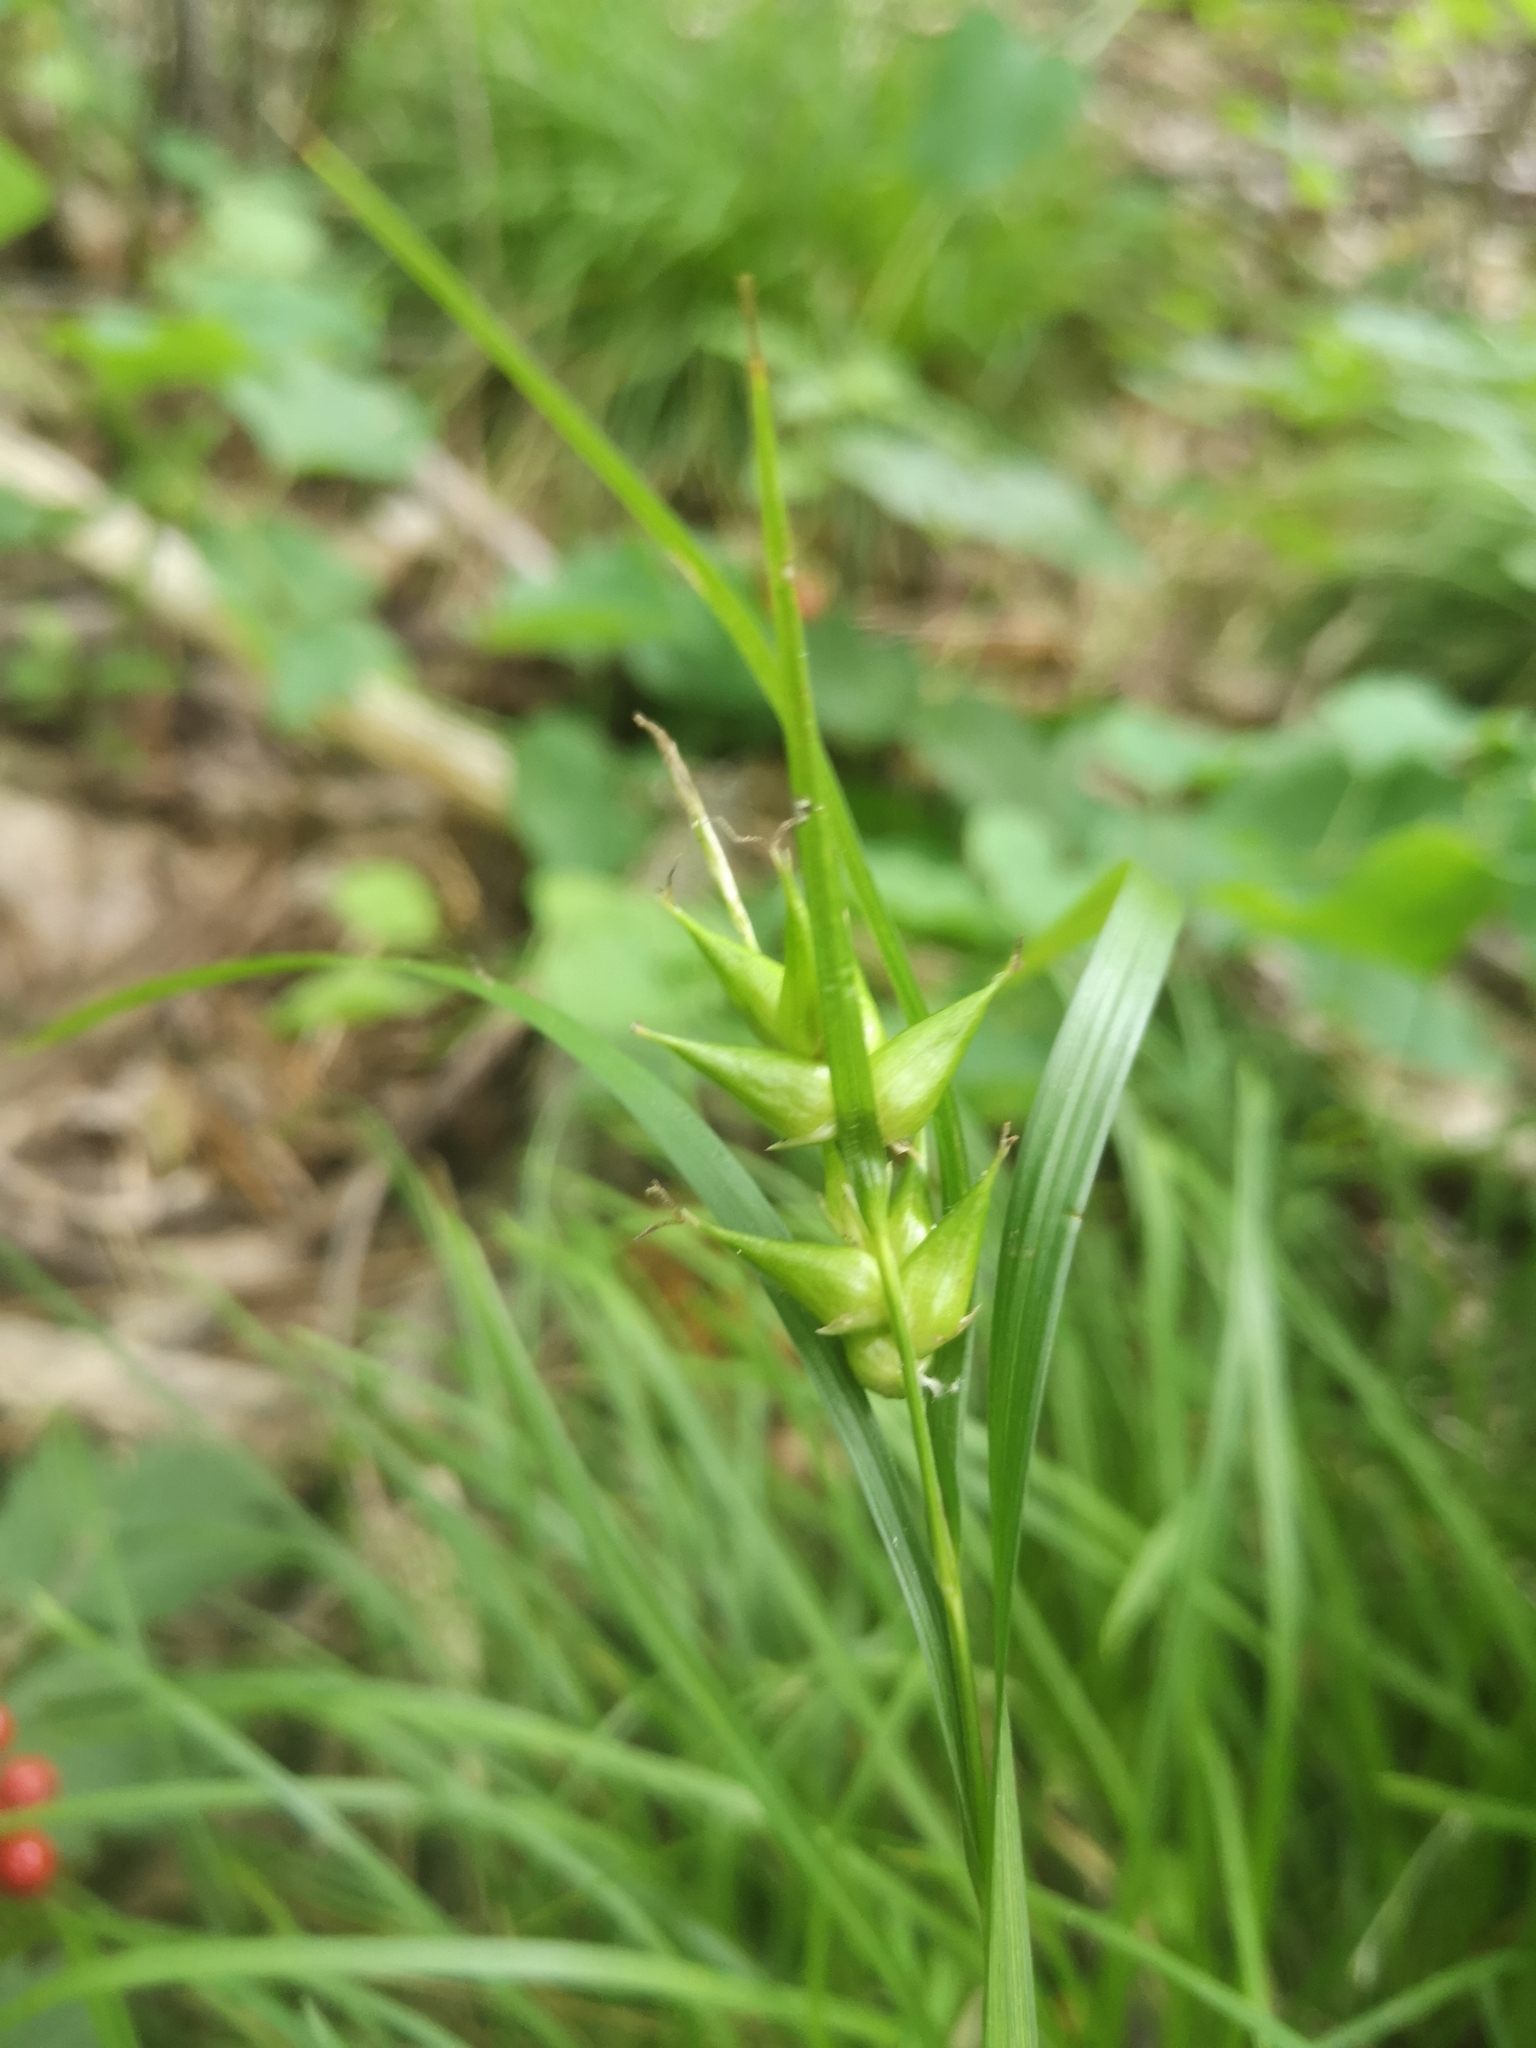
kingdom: Plantae
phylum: Tracheophyta
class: Liliopsida
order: Poales
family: Cyperaceae
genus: Carex
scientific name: Carex intumescens
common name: Greater bladder sedge
